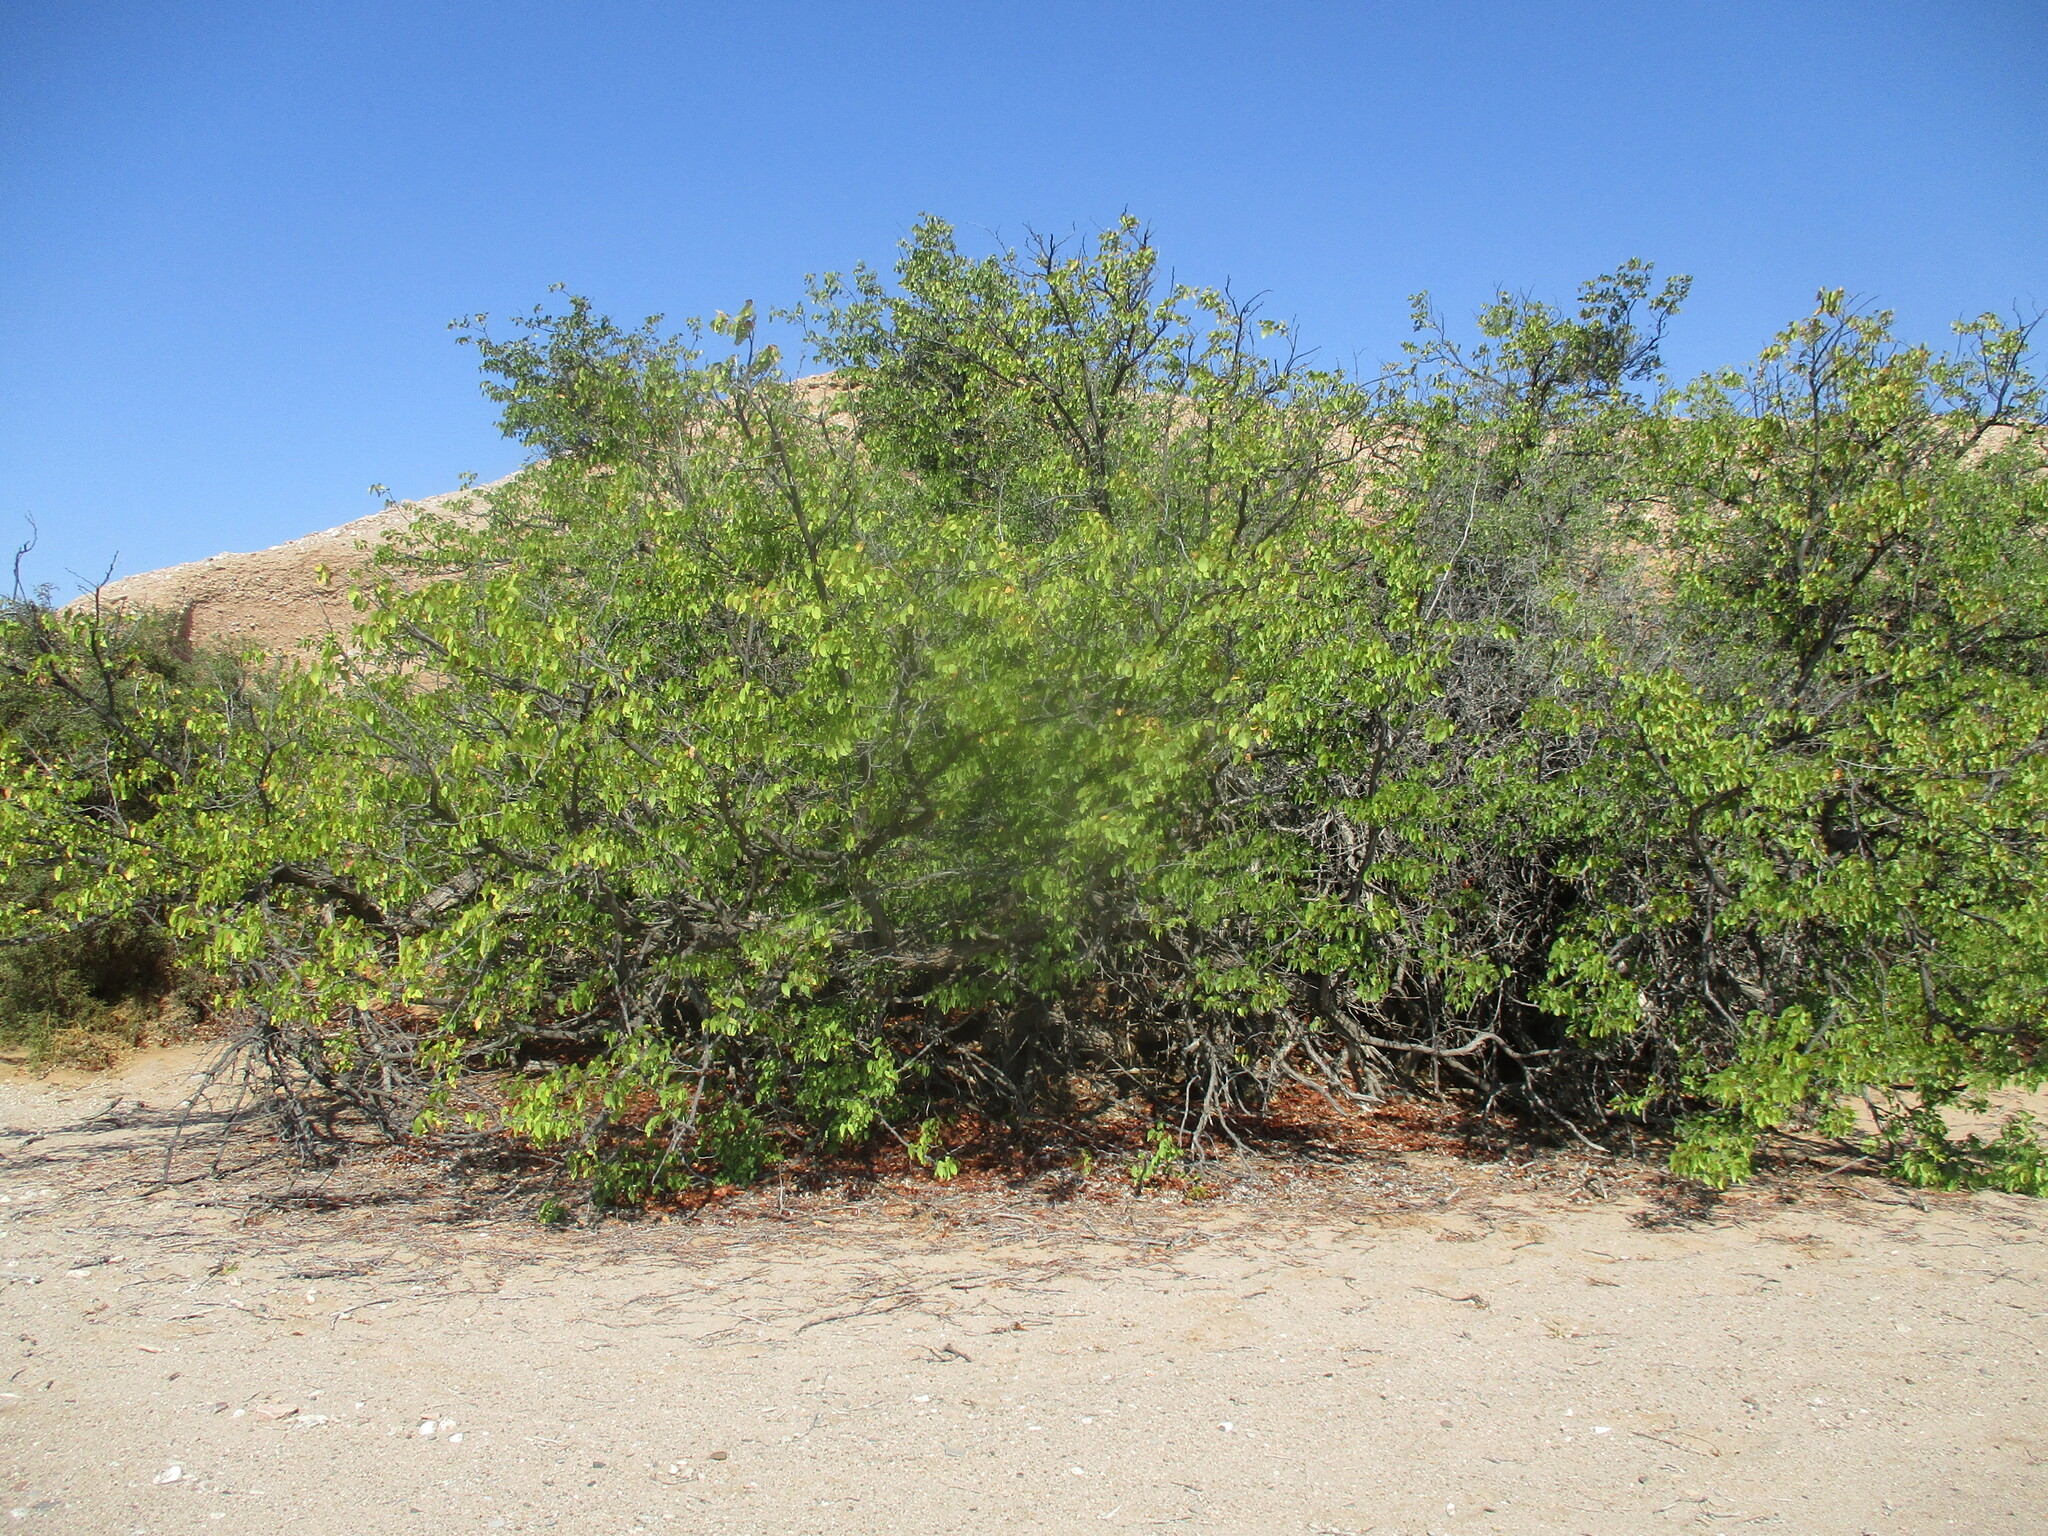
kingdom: Plantae
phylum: Tracheophyta
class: Magnoliopsida
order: Fabales
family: Fabaceae
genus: Colophospermum
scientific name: Colophospermum mopane
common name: Mopane
